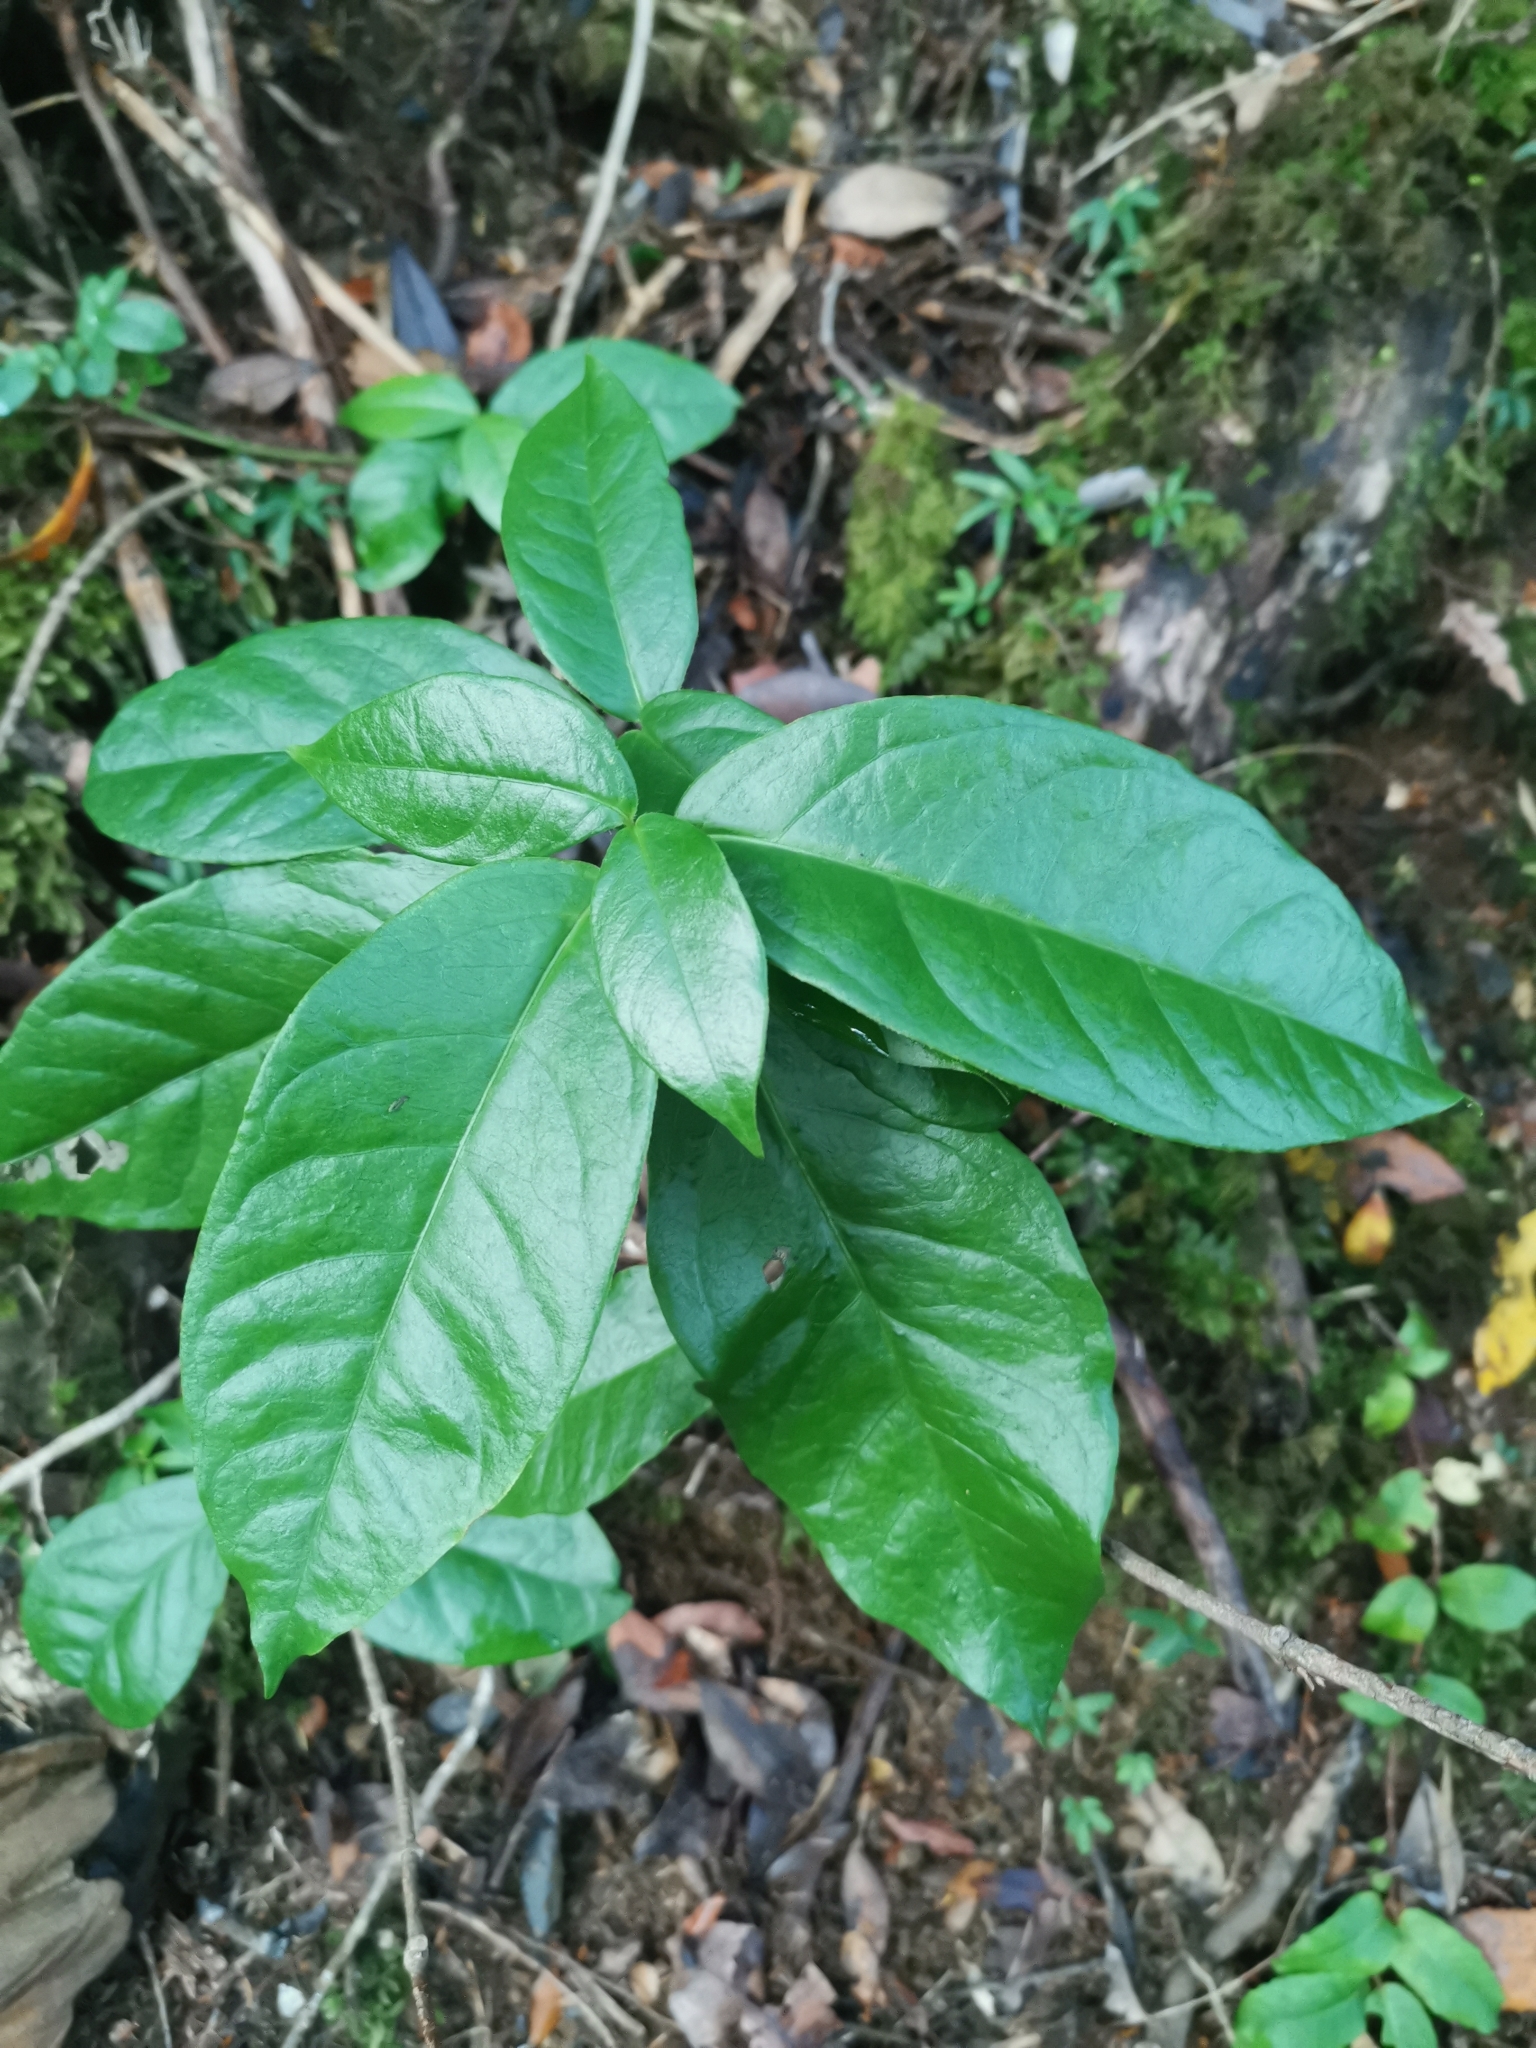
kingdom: Plantae
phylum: Tracheophyta
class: Magnoliopsida
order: Gentianales
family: Apocynaceae
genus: Mandevilla
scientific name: Mandevilla pubescens
